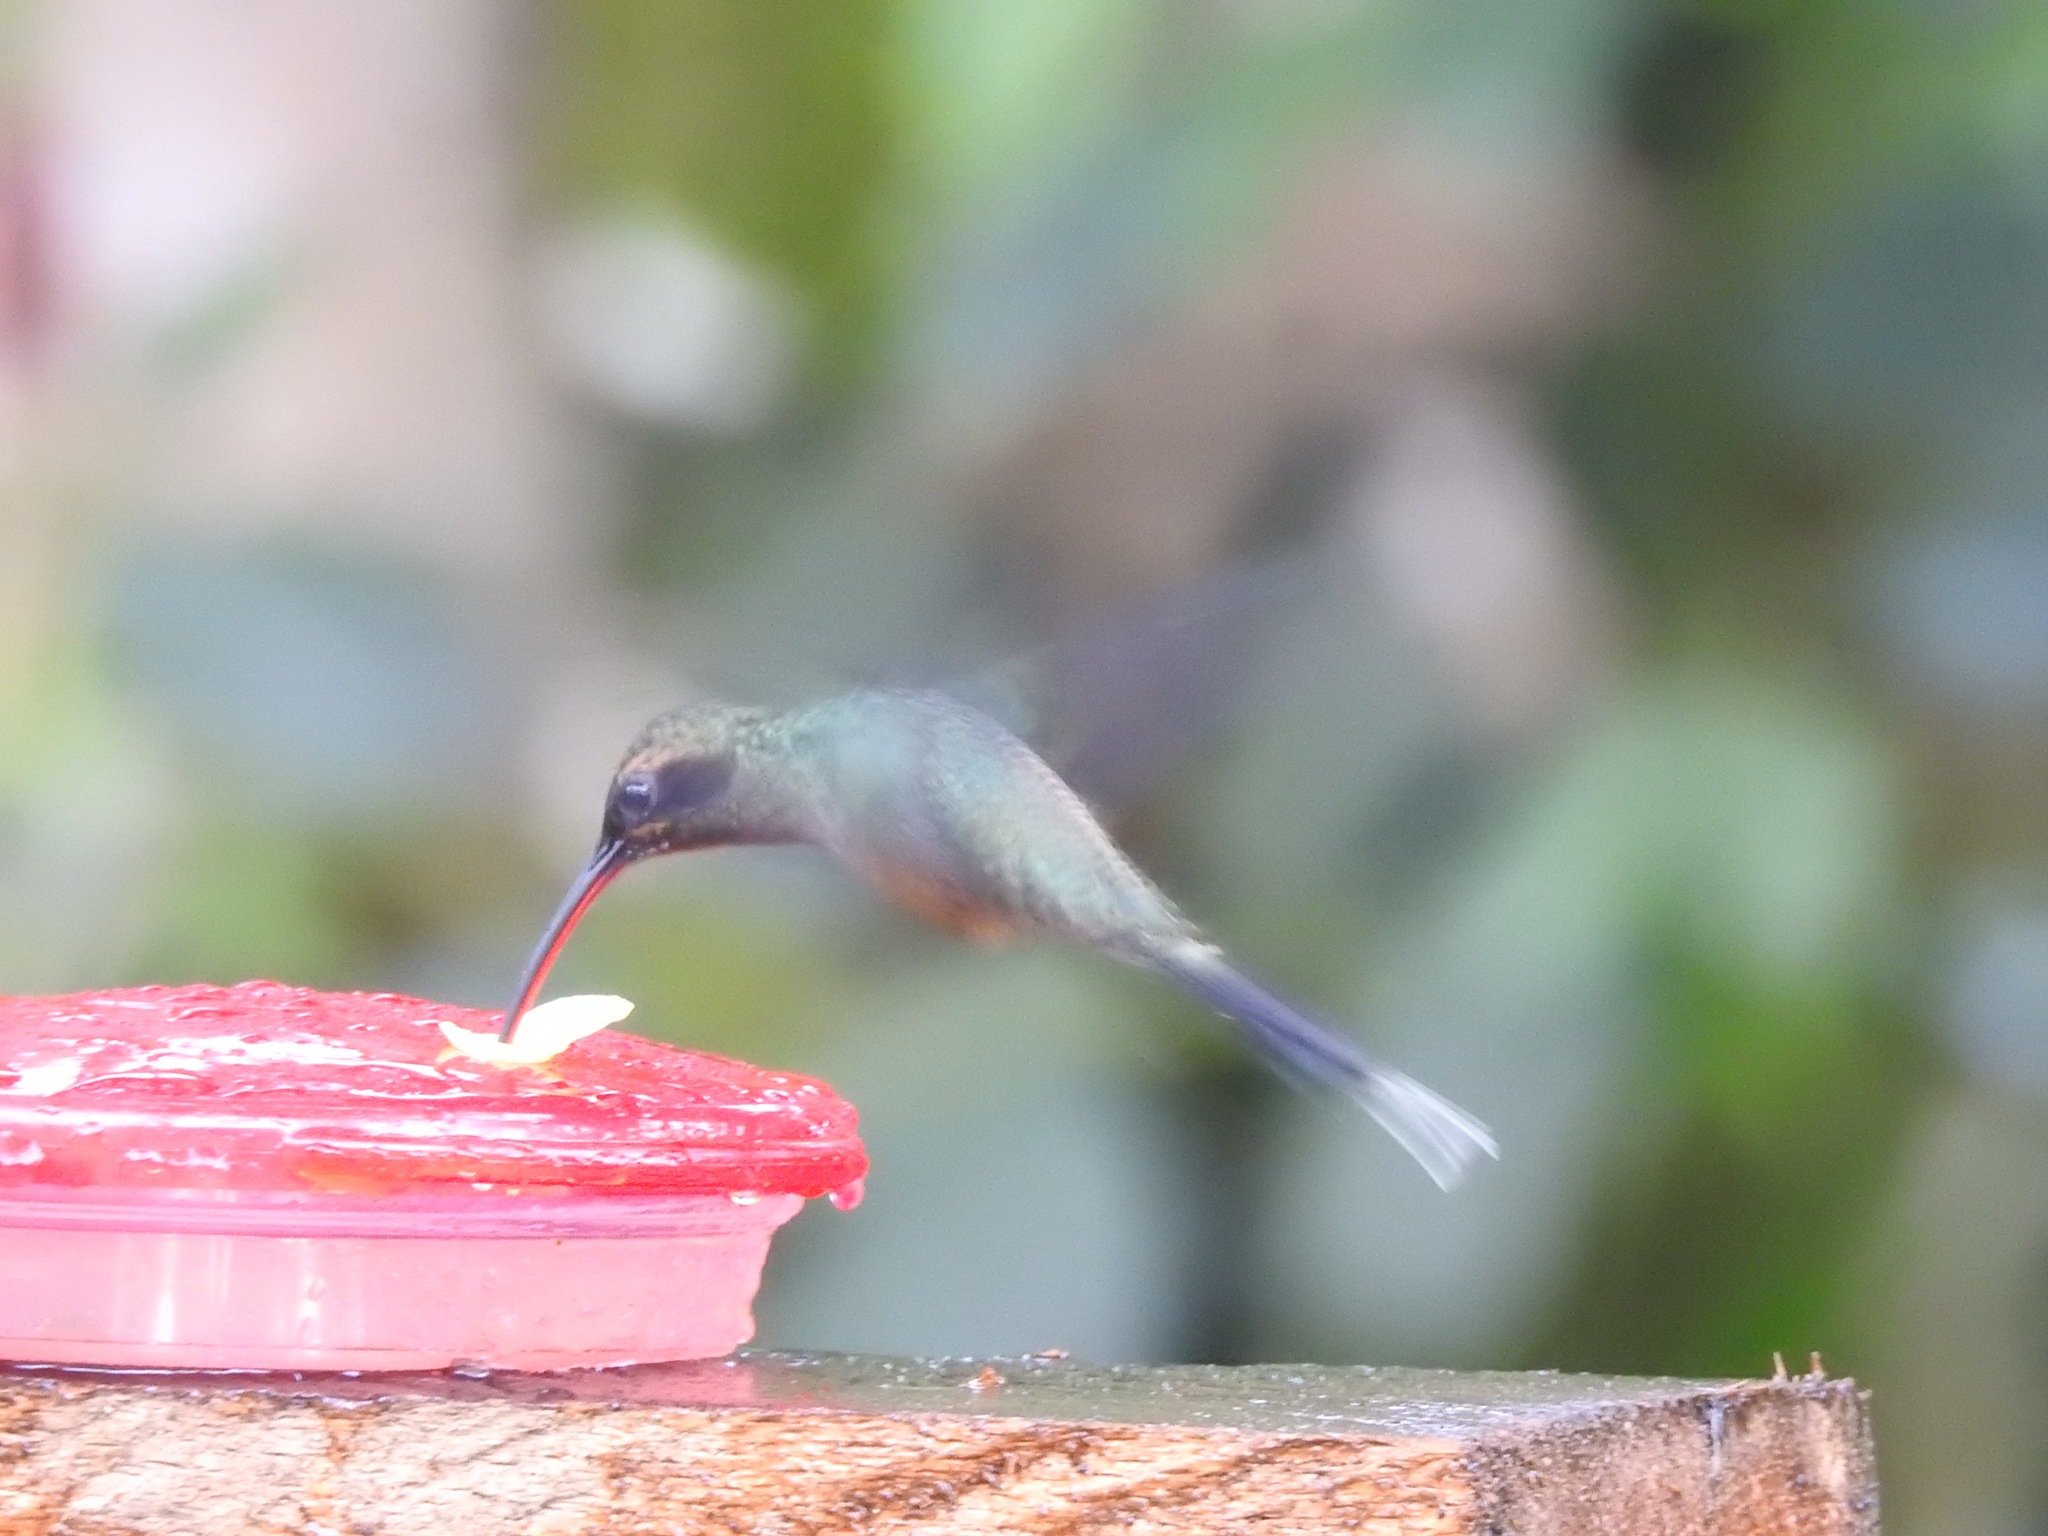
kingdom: Animalia
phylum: Chordata
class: Aves
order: Apodiformes
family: Trochilidae
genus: Phaethornis
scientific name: Phaethornis guy
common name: Green hermit
